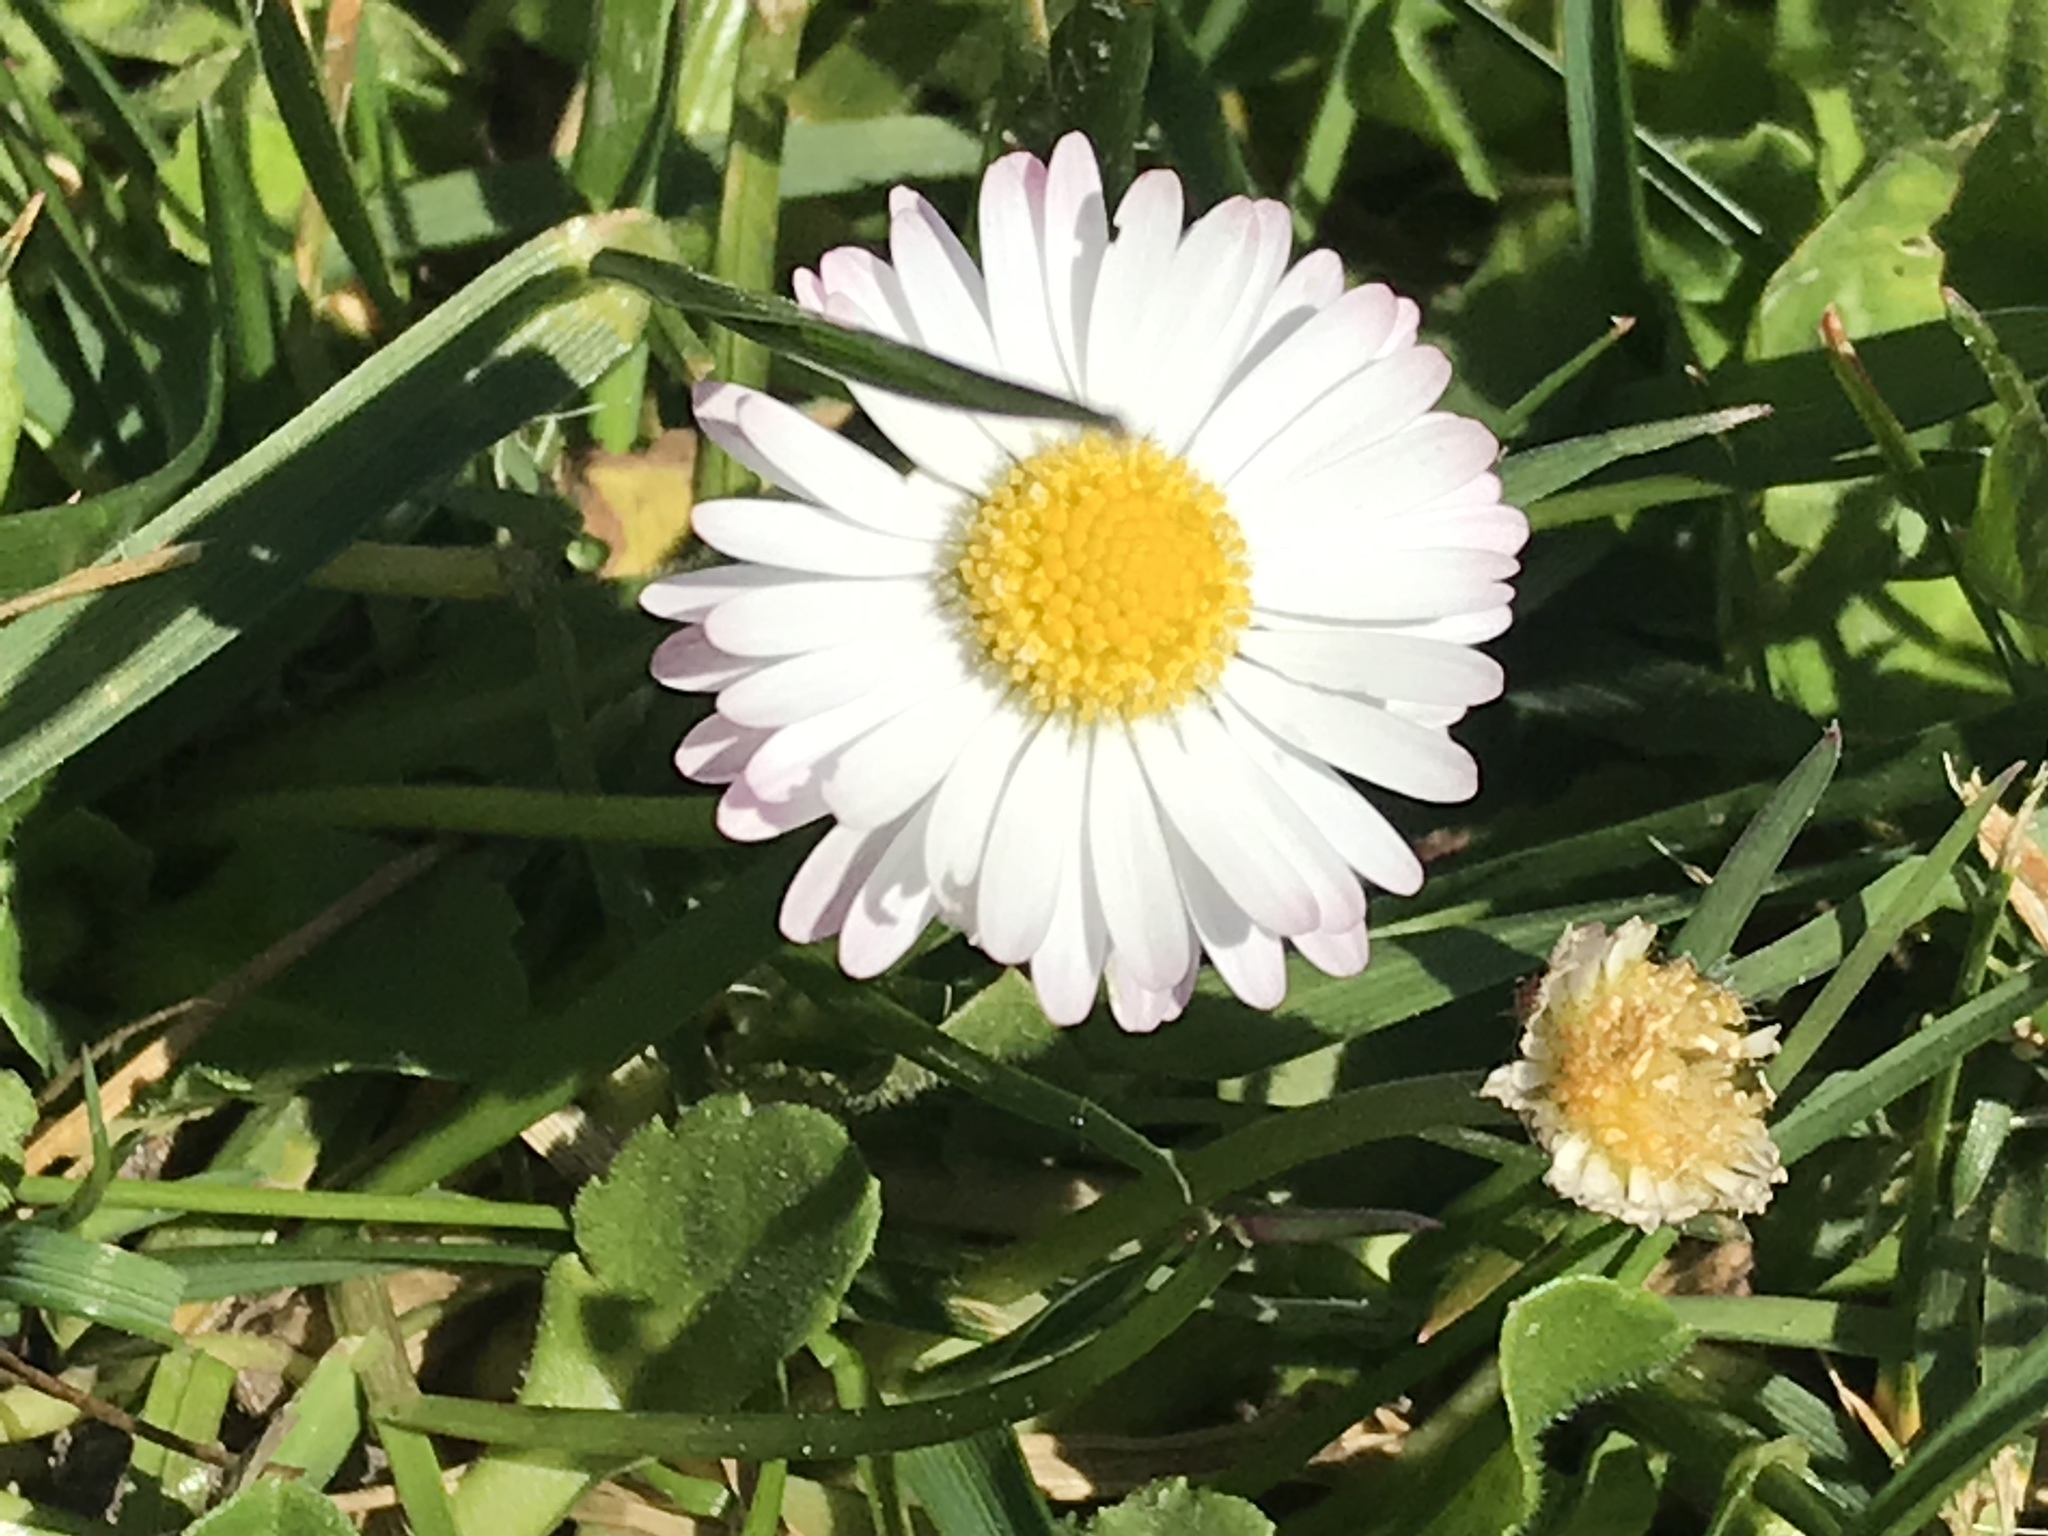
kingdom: Plantae
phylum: Tracheophyta
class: Magnoliopsida
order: Asterales
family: Asteraceae
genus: Bellis
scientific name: Bellis perennis
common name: Lawndaisy
